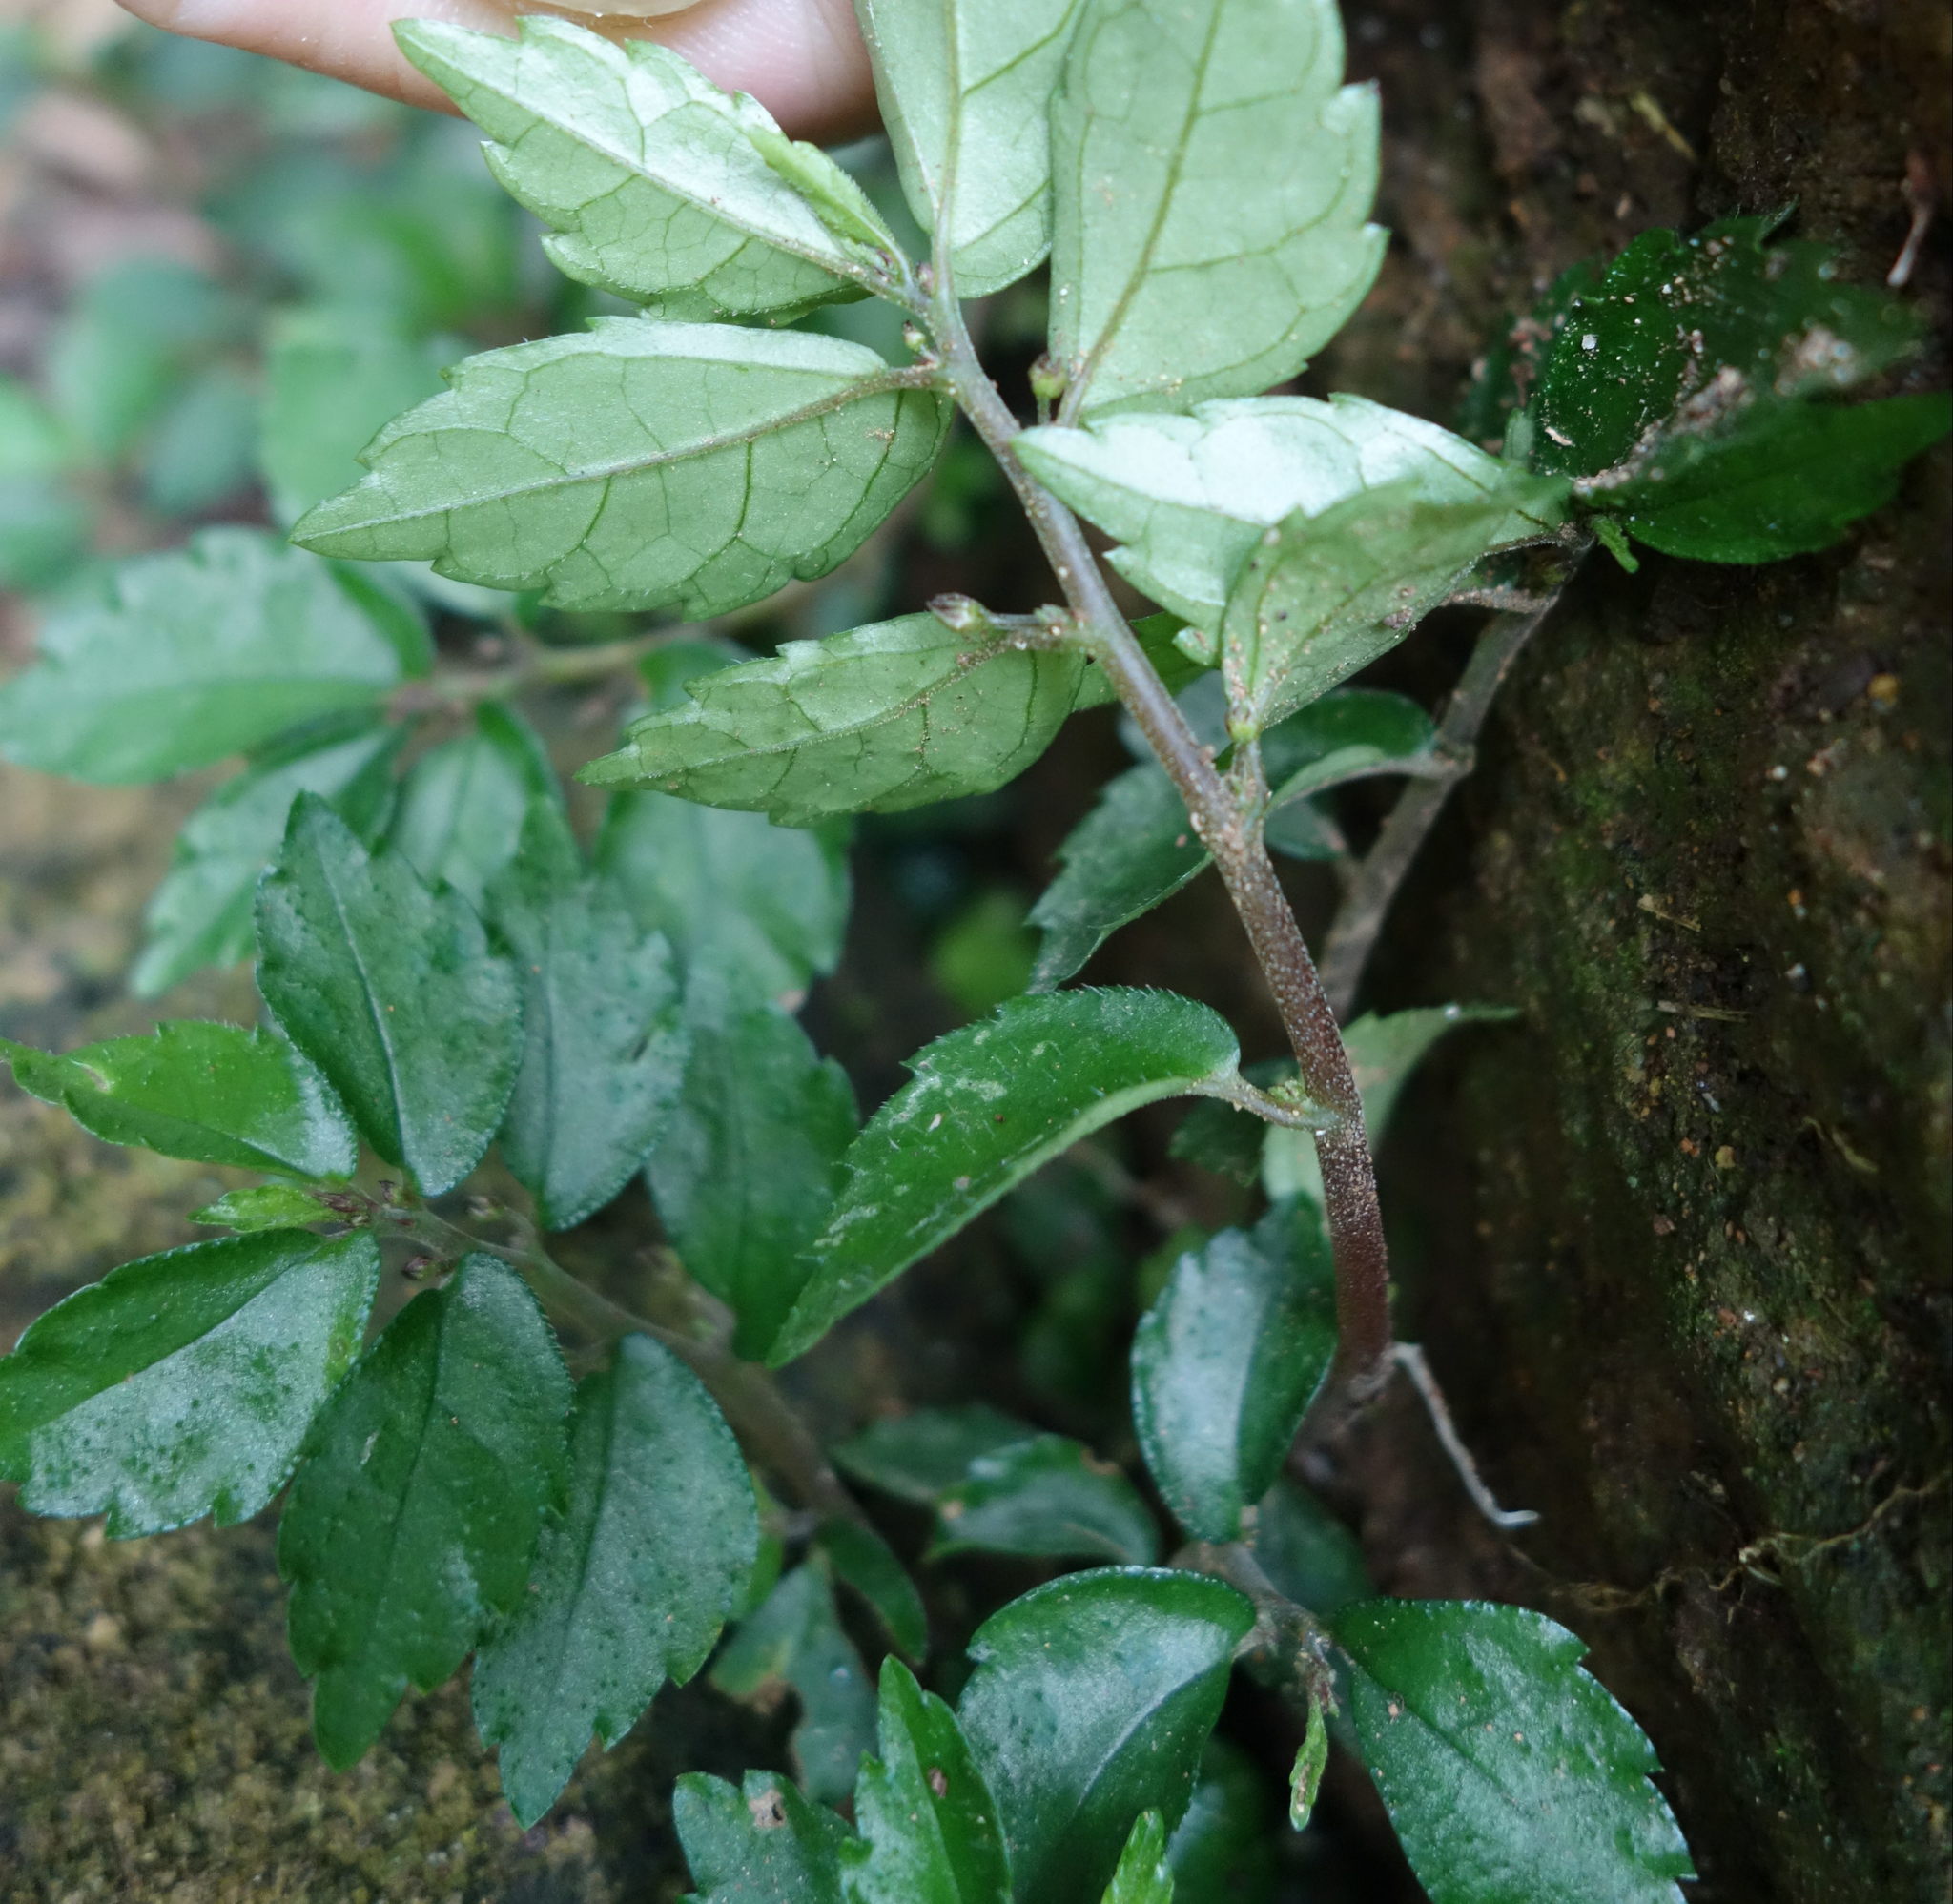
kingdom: Plantae
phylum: Tracheophyta
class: Magnoliopsida
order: Rosales
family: Urticaceae
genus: Elatostema
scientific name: Elatostema radicans
